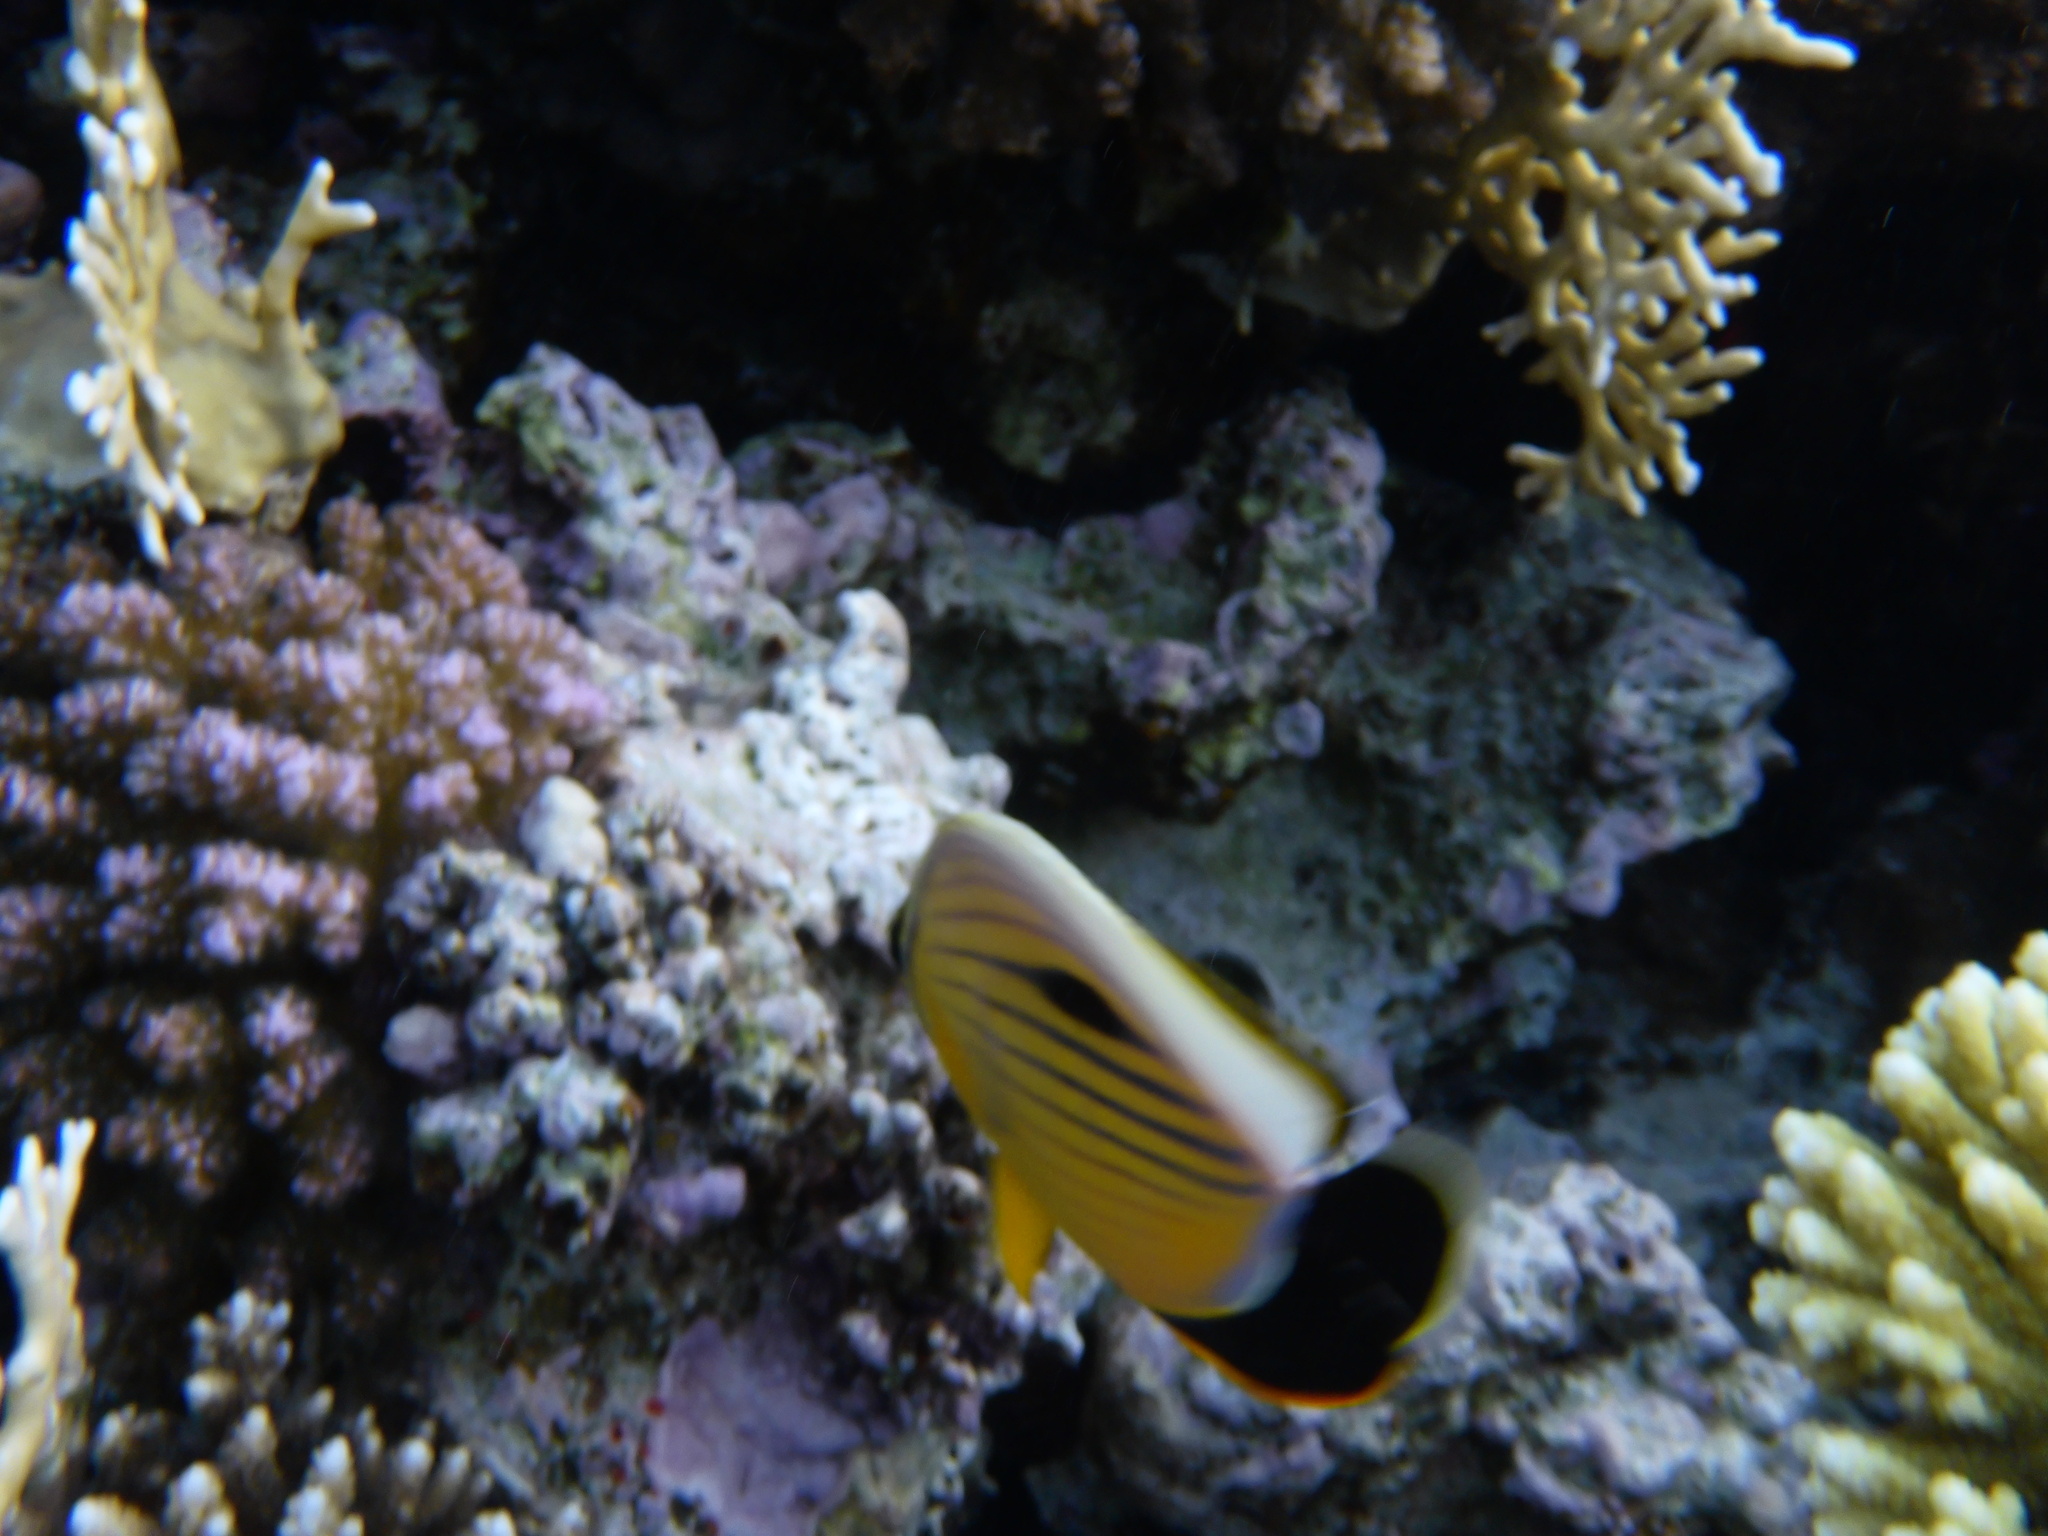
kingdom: Animalia
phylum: Chordata
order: Perciformes
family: Chaetodontidae
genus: Chaetodon
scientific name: Chaetodon austriacus
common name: Exquisite butterflyfish
